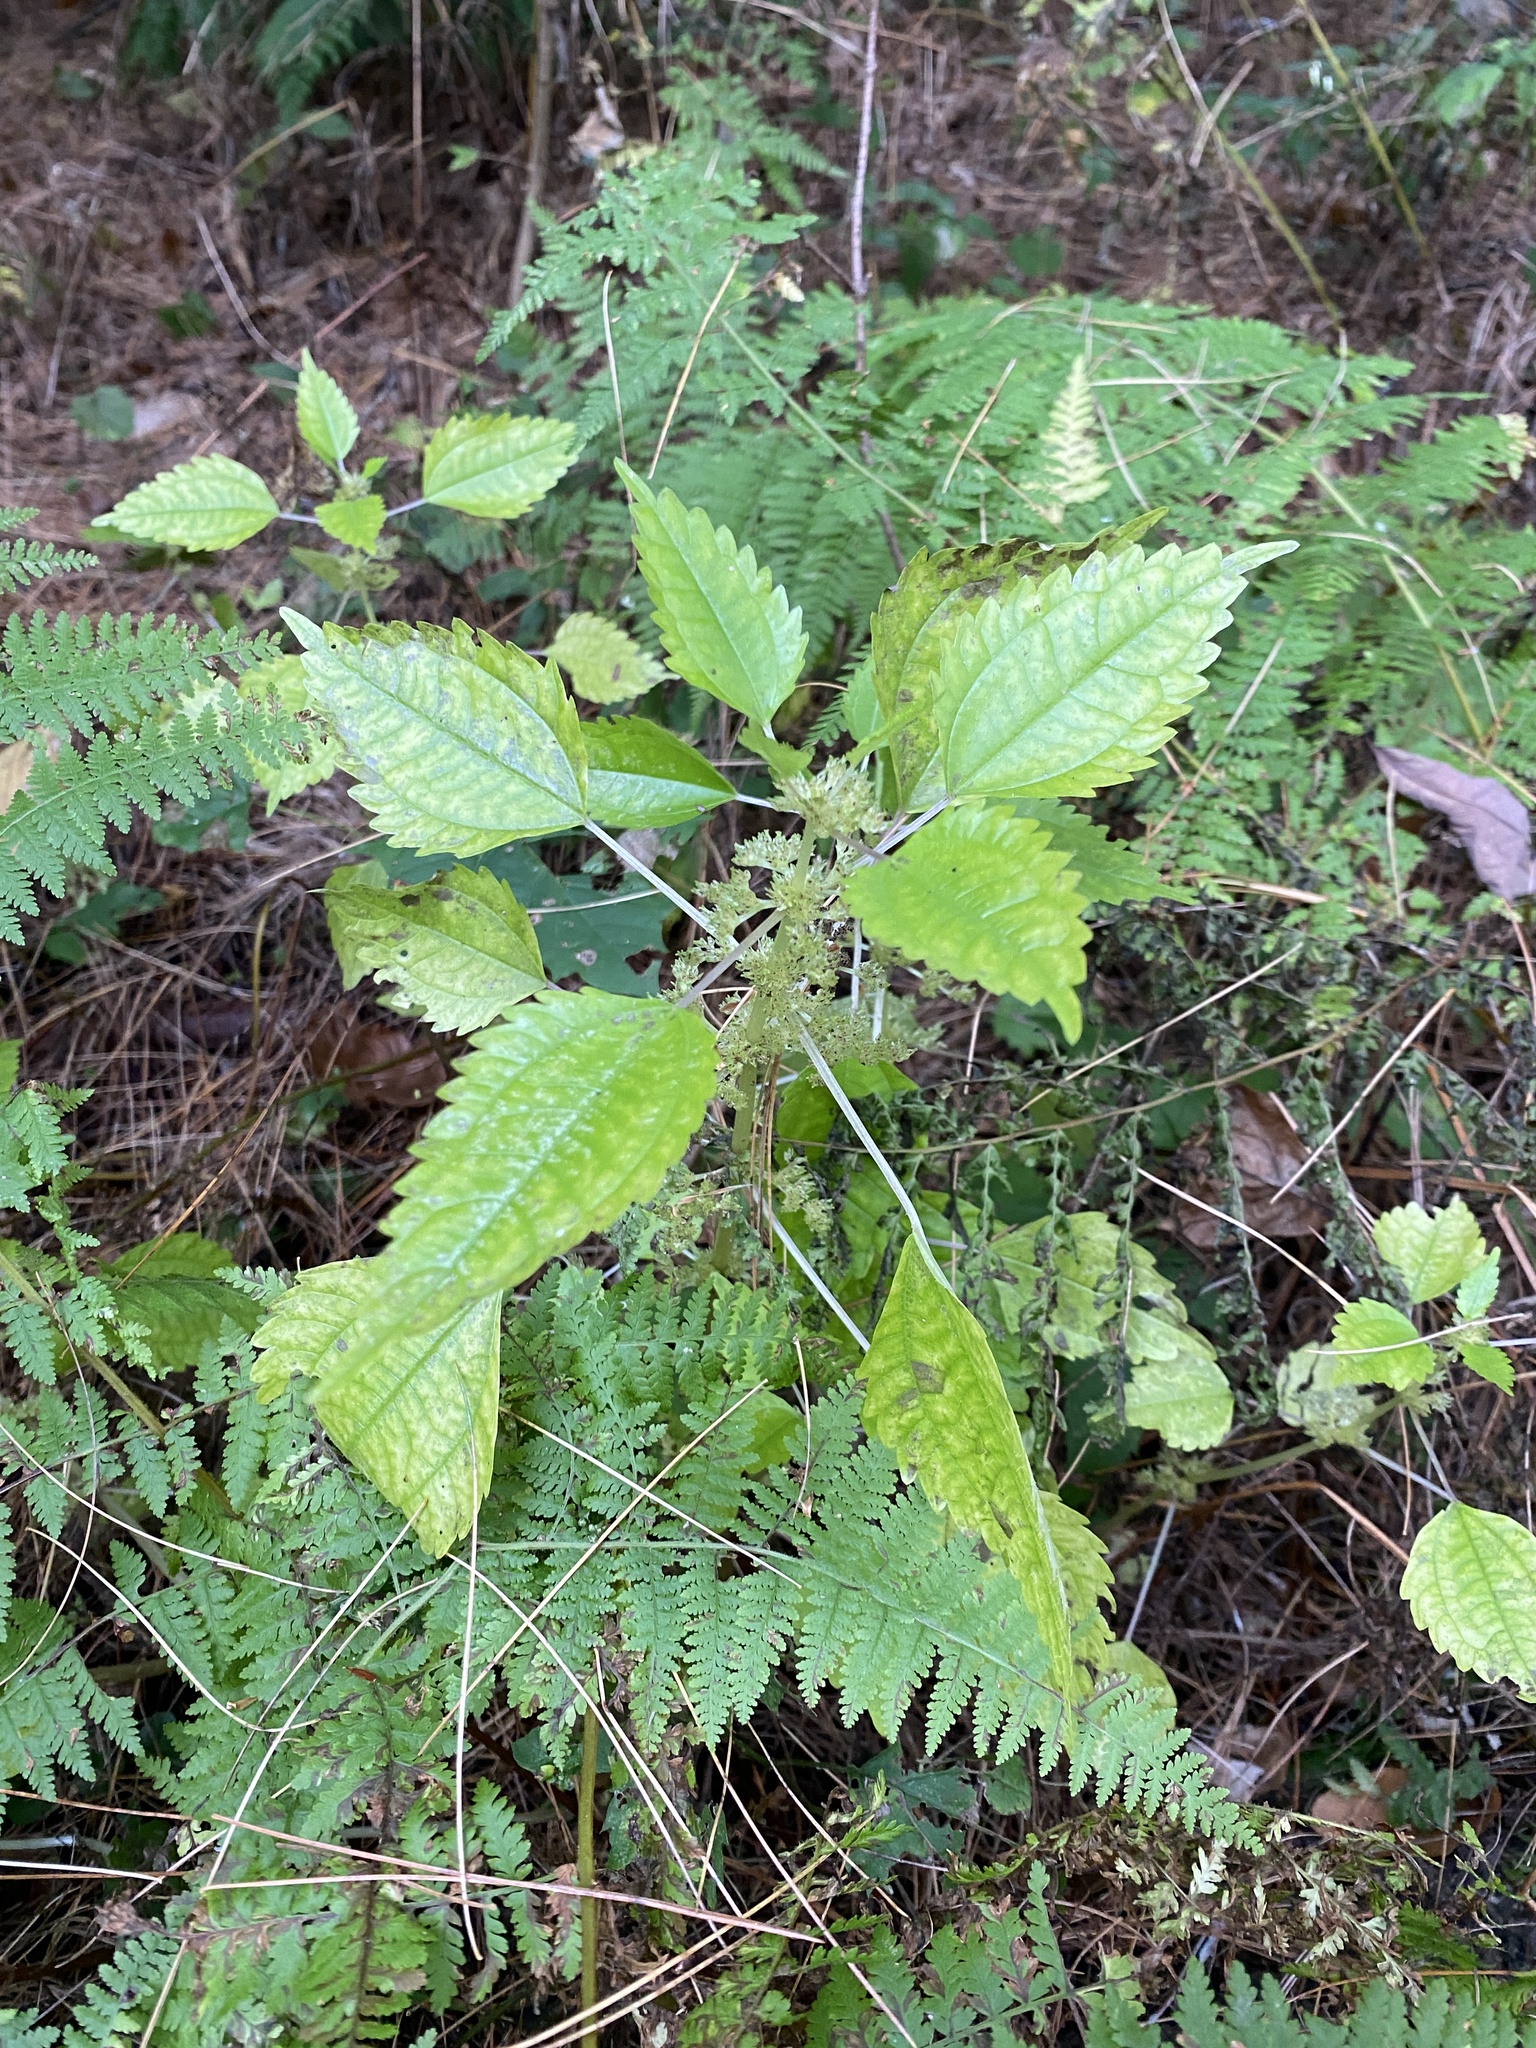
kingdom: Plantae
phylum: Tracheophyta
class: Magnoliopsida
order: Rosales
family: Urticaceae
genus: Pilea
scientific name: Pilea pumila
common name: Clearweed
